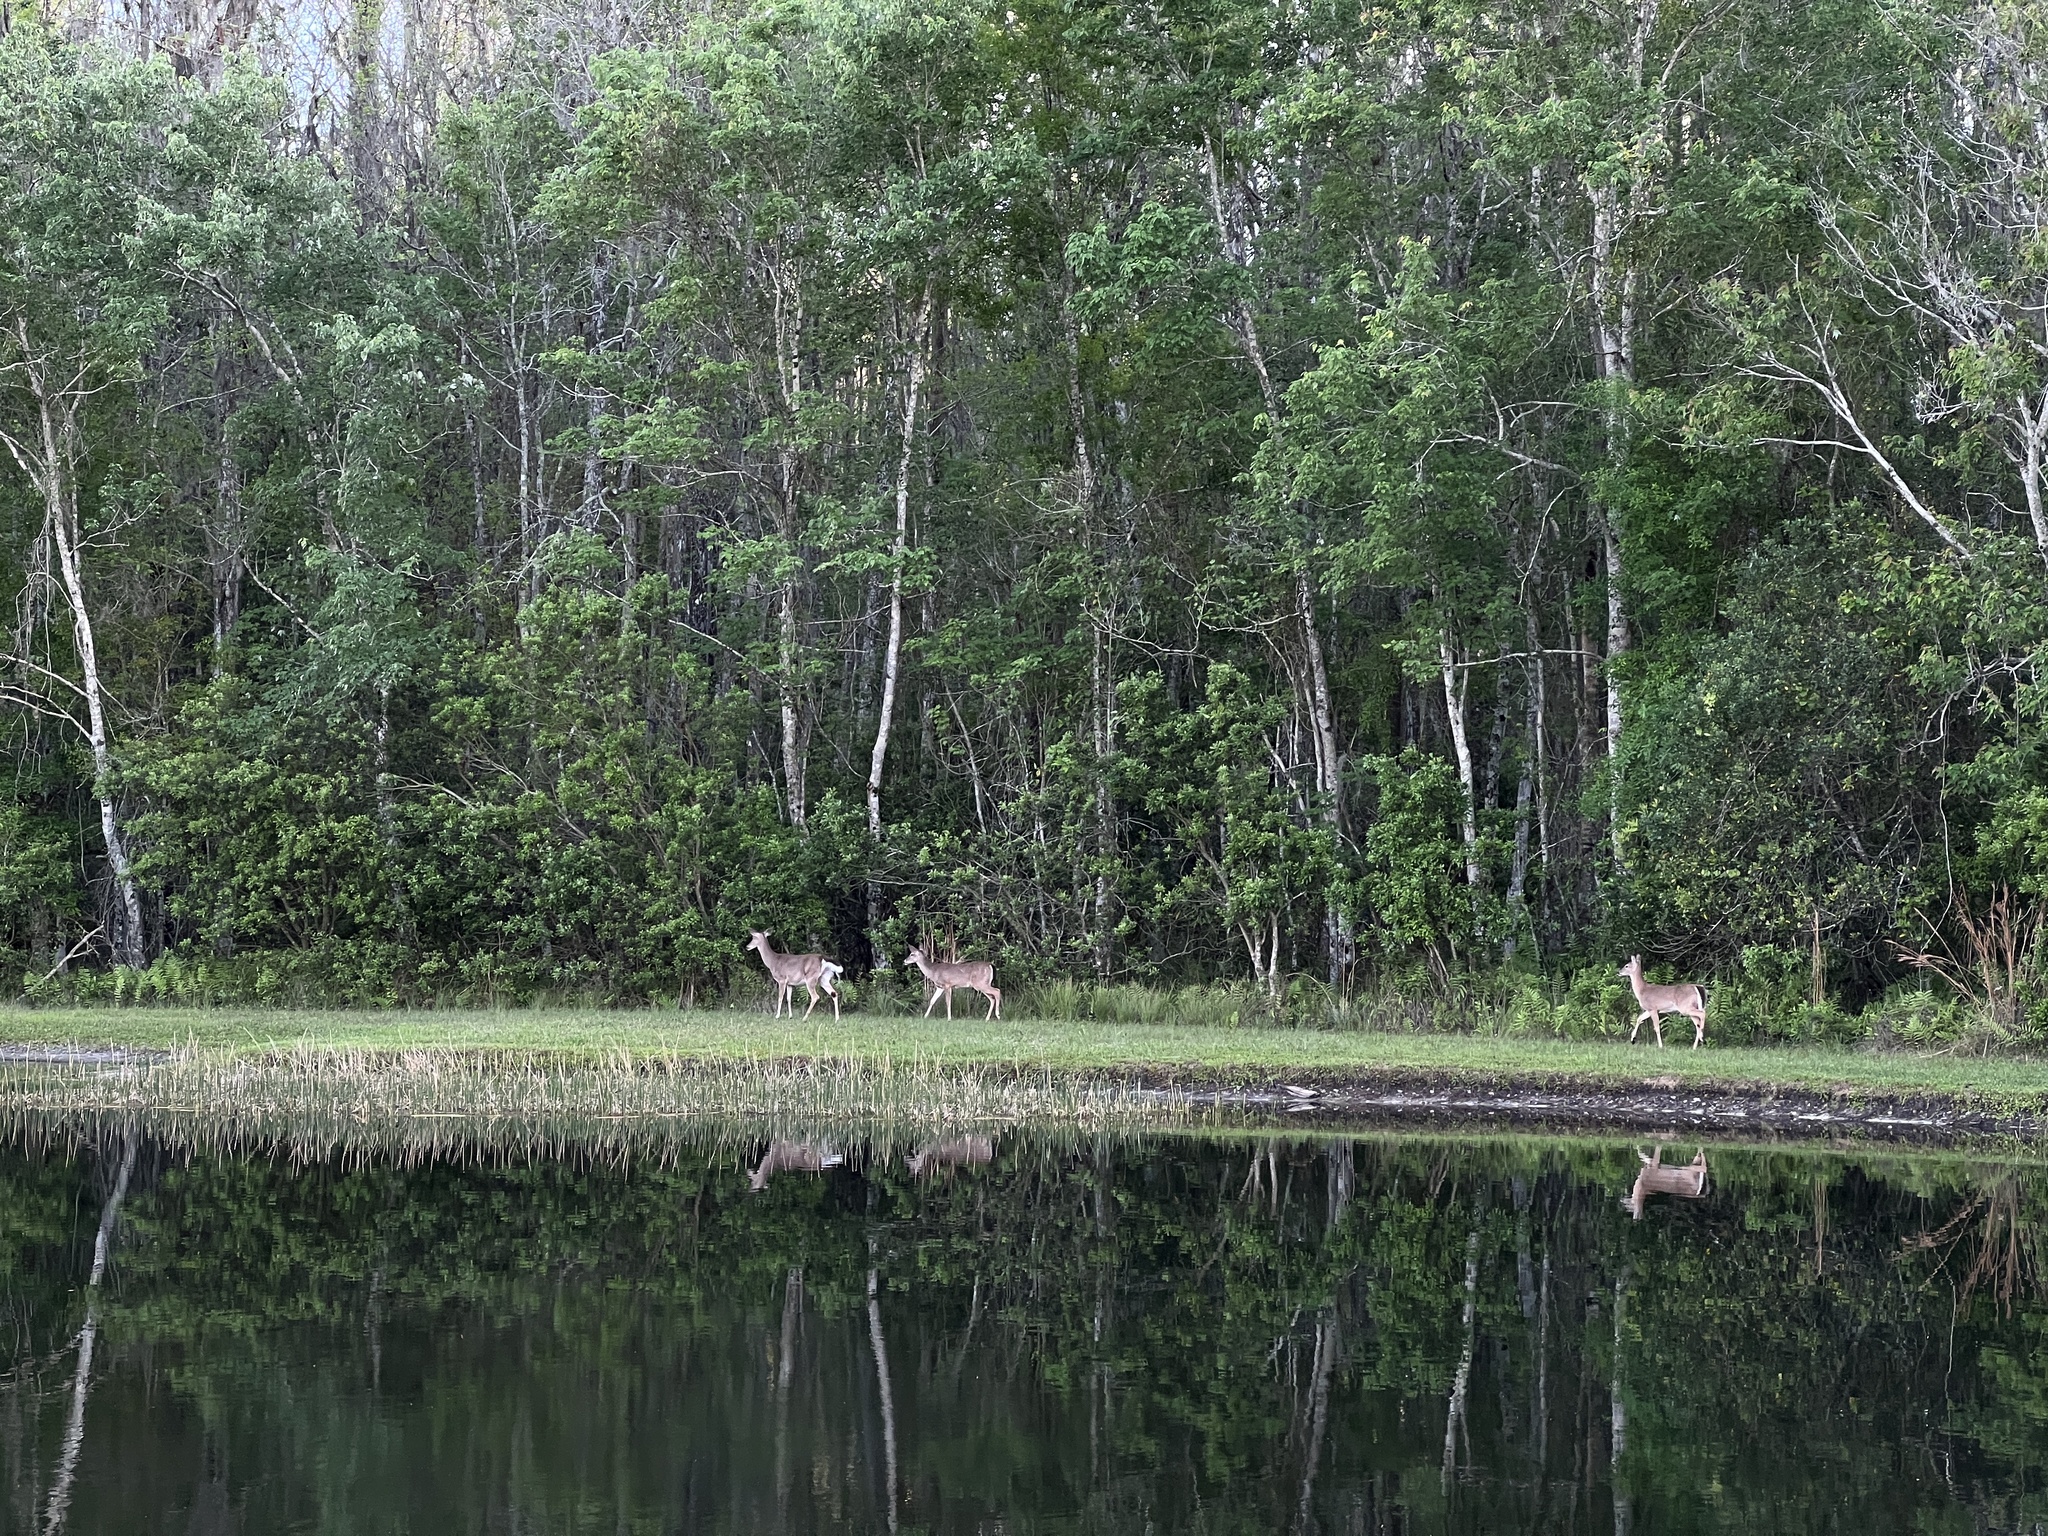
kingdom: Animalia
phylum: Chordata
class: Mammalia
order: Artiodactyla
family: Cervidae
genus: Odocoileus
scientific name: Odocoileus virginianus
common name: White-tailed deer
